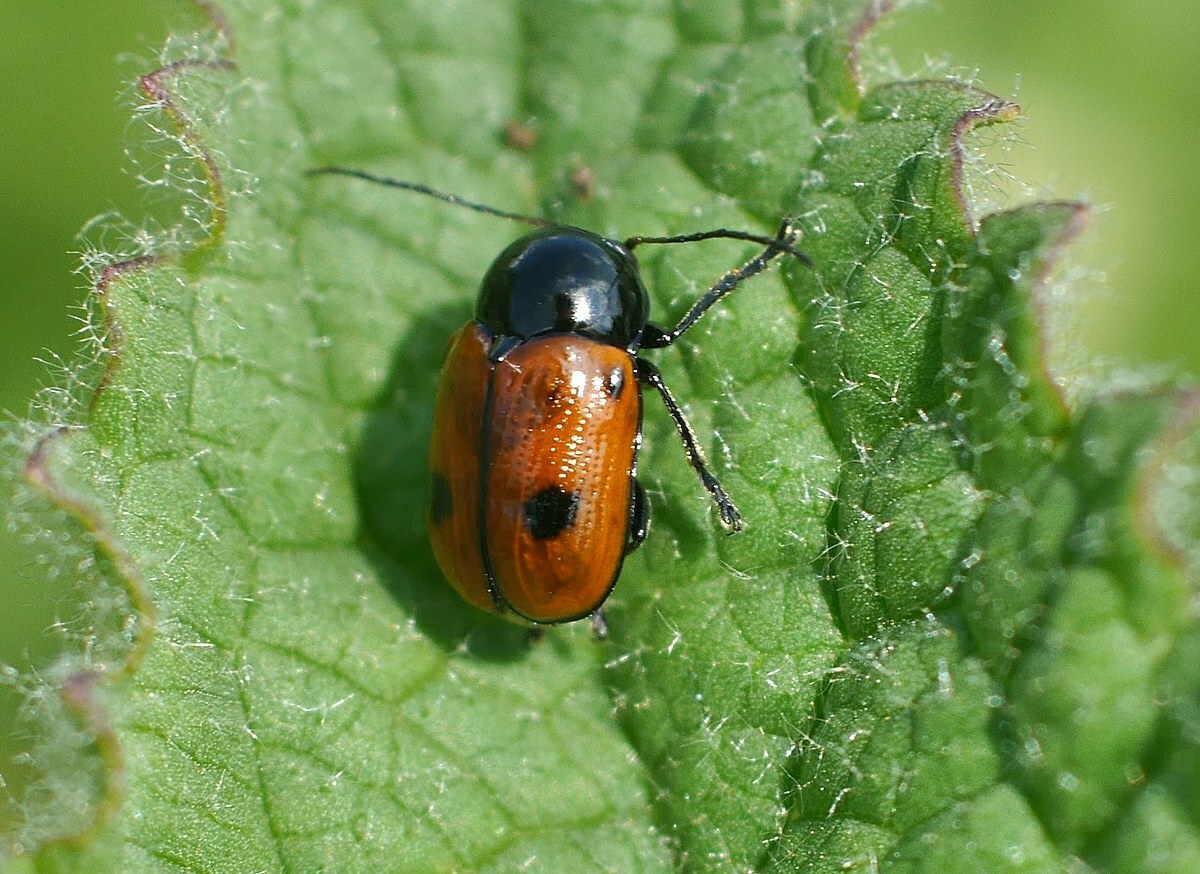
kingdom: Animalia
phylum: Arthropoda
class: Insecta
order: Coleoptera
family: Chrysomelidae
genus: Chiridopsis
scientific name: Chiridopsis bipunctata
